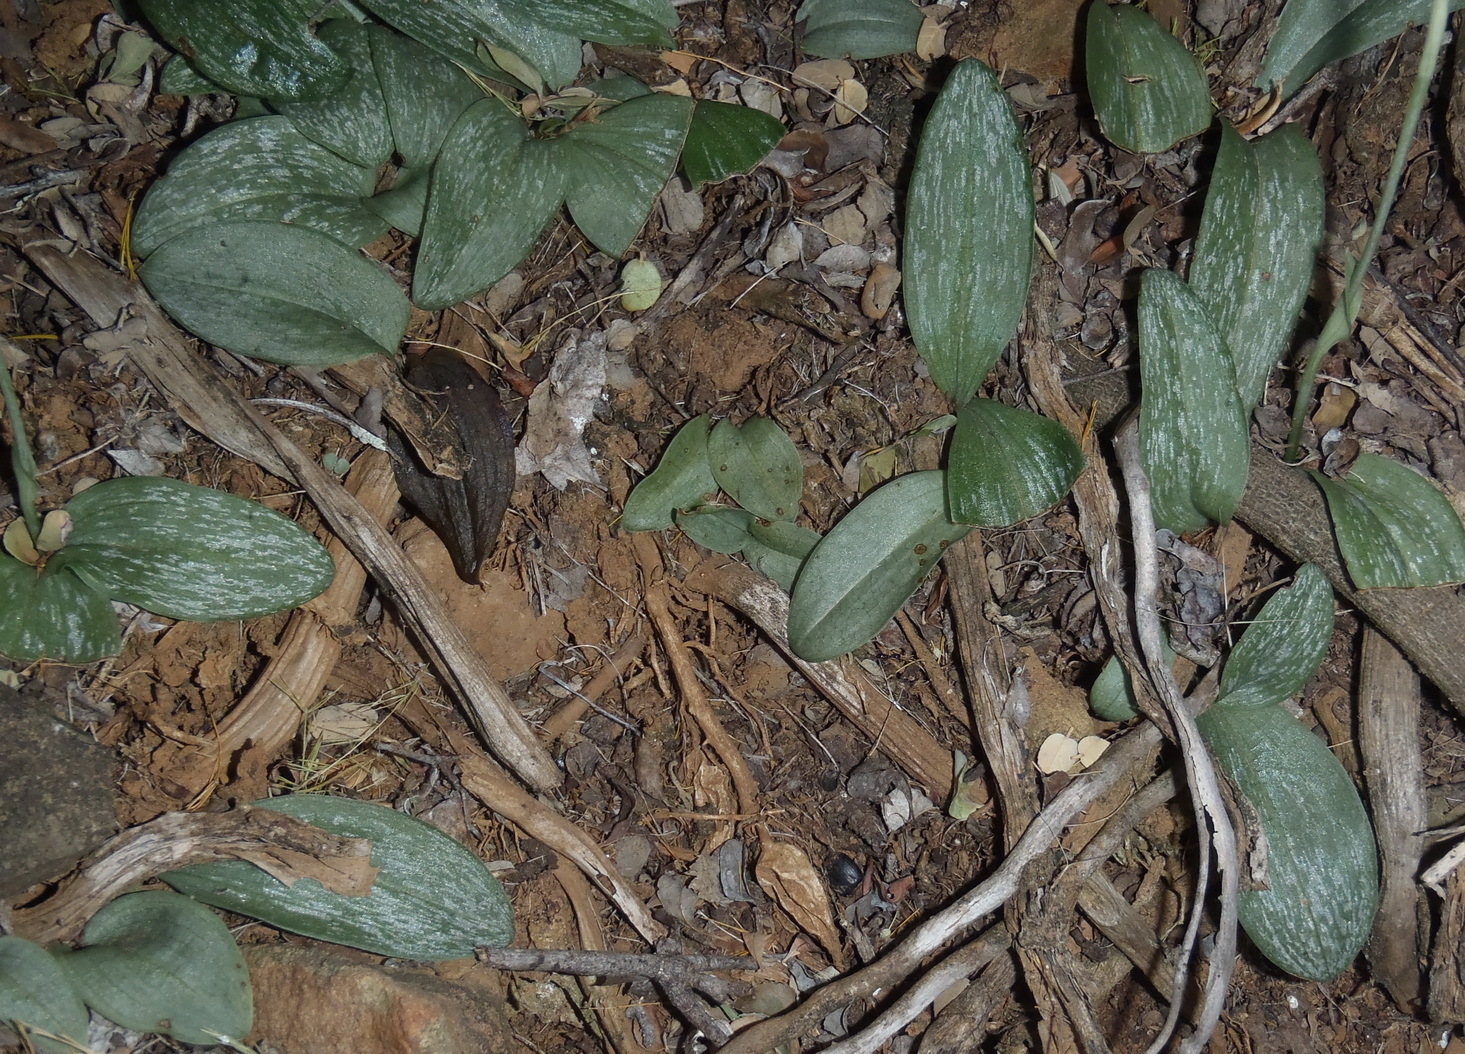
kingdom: Plantae
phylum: Tracheophyta
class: Liliopsida
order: Asparagales
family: Orchidaceae
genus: Habenaria
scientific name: Habenaria arenaria
